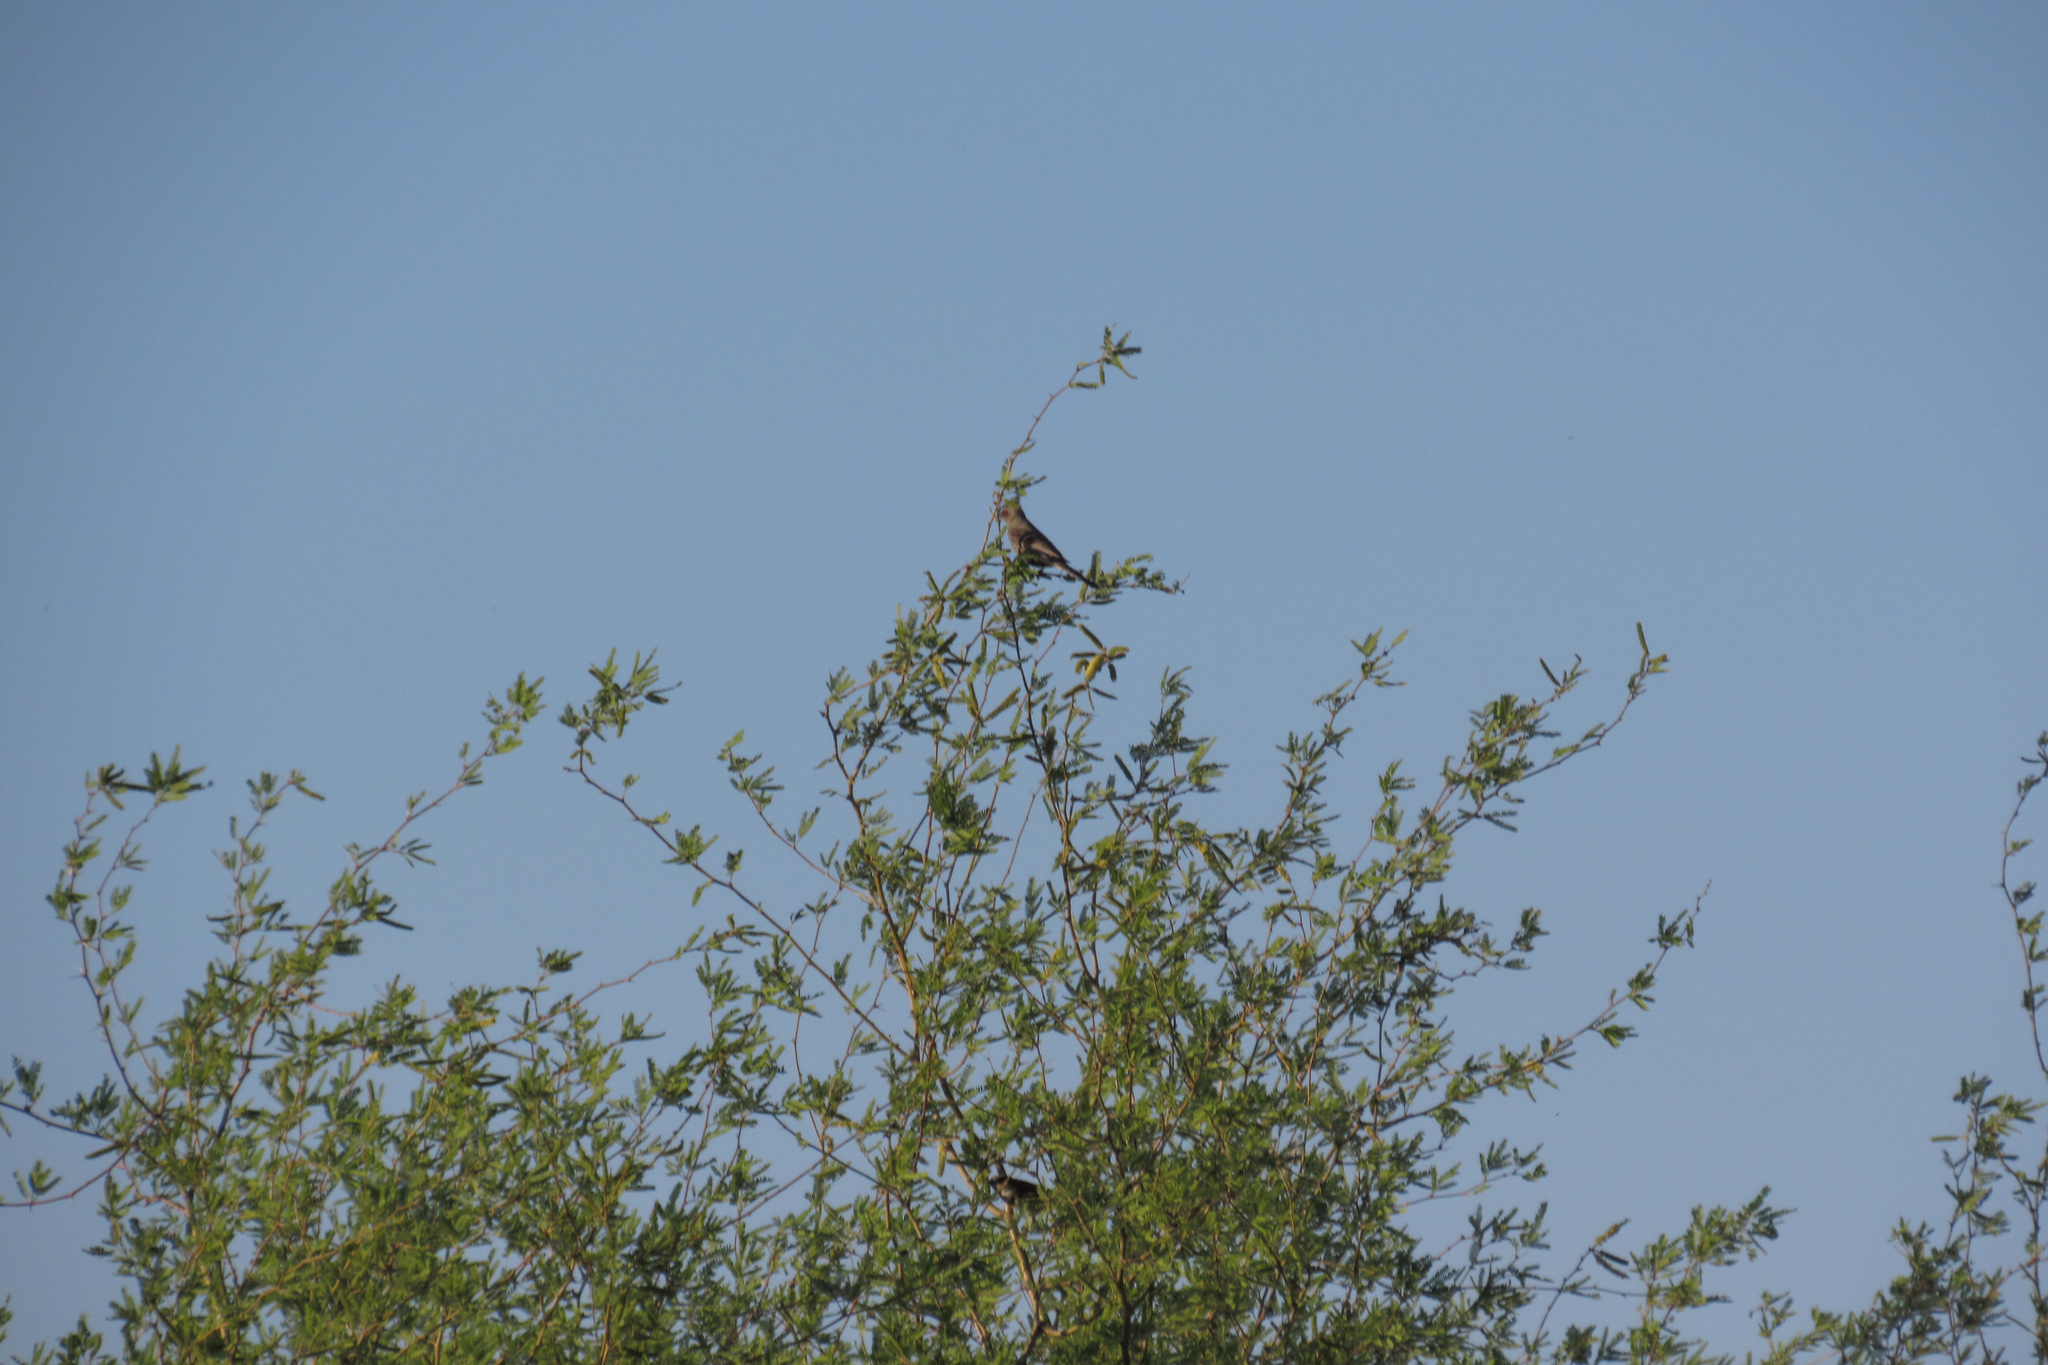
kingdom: Animalia
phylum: Chordata
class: Aves
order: Passeriformes
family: Ptilogonatidae
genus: Phainopepla
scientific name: Phainopepla nitens
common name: Phainopepla
